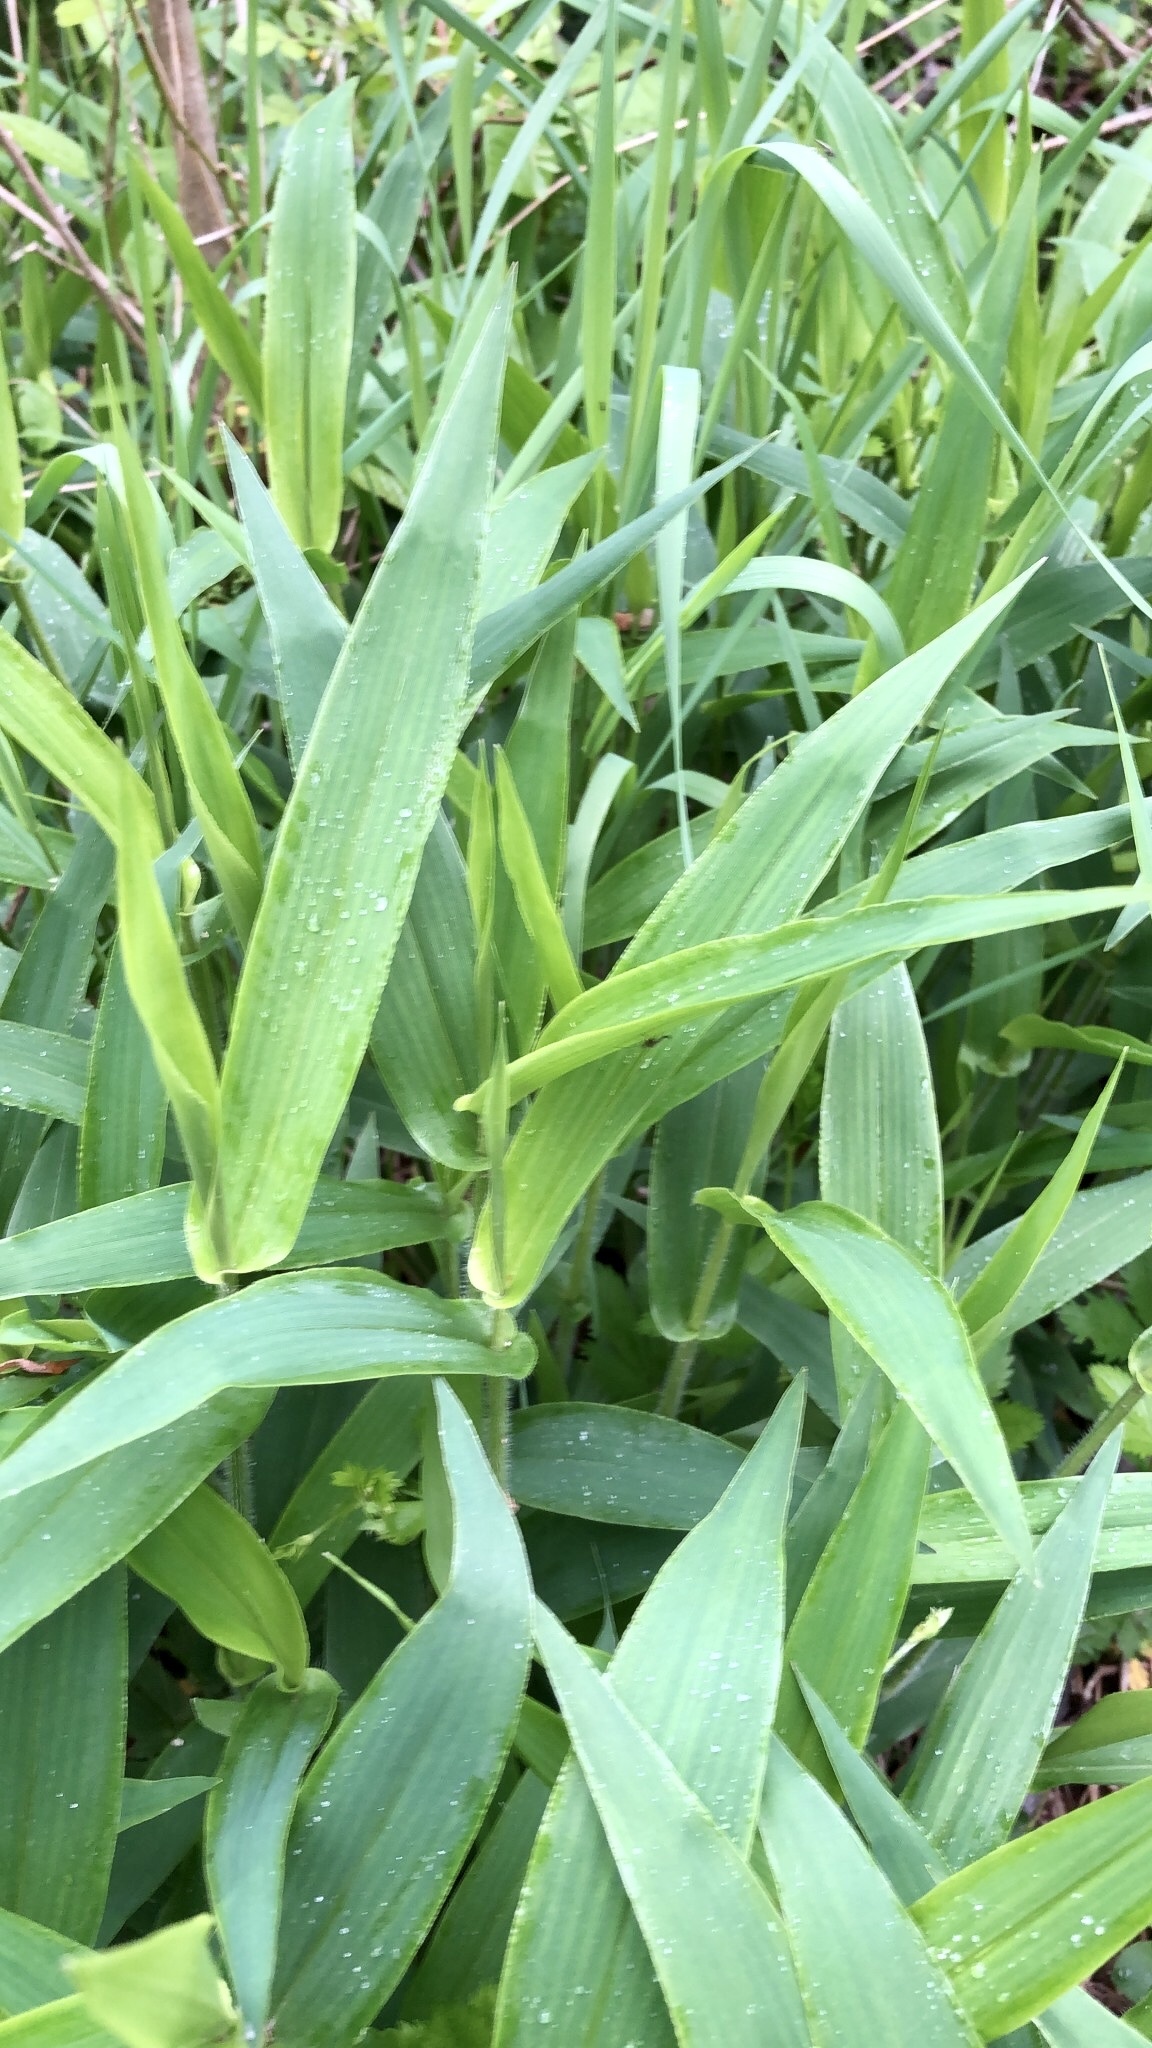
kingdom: Plantae
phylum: Tracheophyta
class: Liliopsida
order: Poales
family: Poaceae
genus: Dichanthelium
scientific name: Dichanthelium clandestinum
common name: Deer-tongue grass
